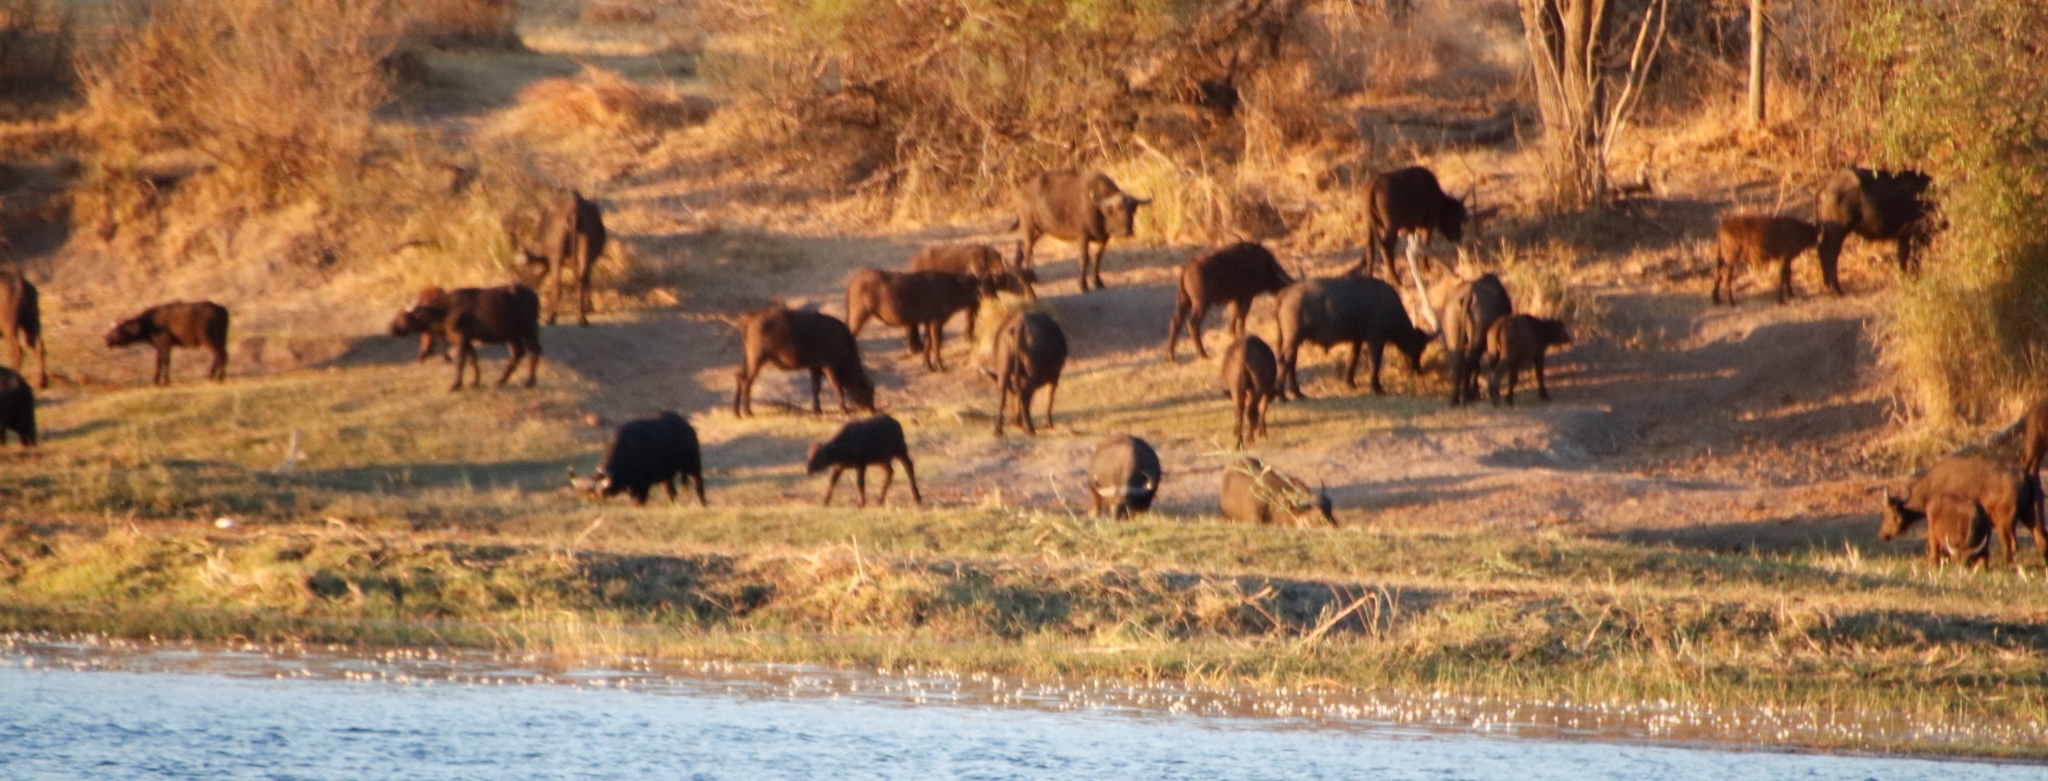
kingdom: Animalia
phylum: Chordata
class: Mammalia
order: Artiodactyla
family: Bovidae
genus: Syncerus
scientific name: Syncerus caffer
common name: African buffalo
